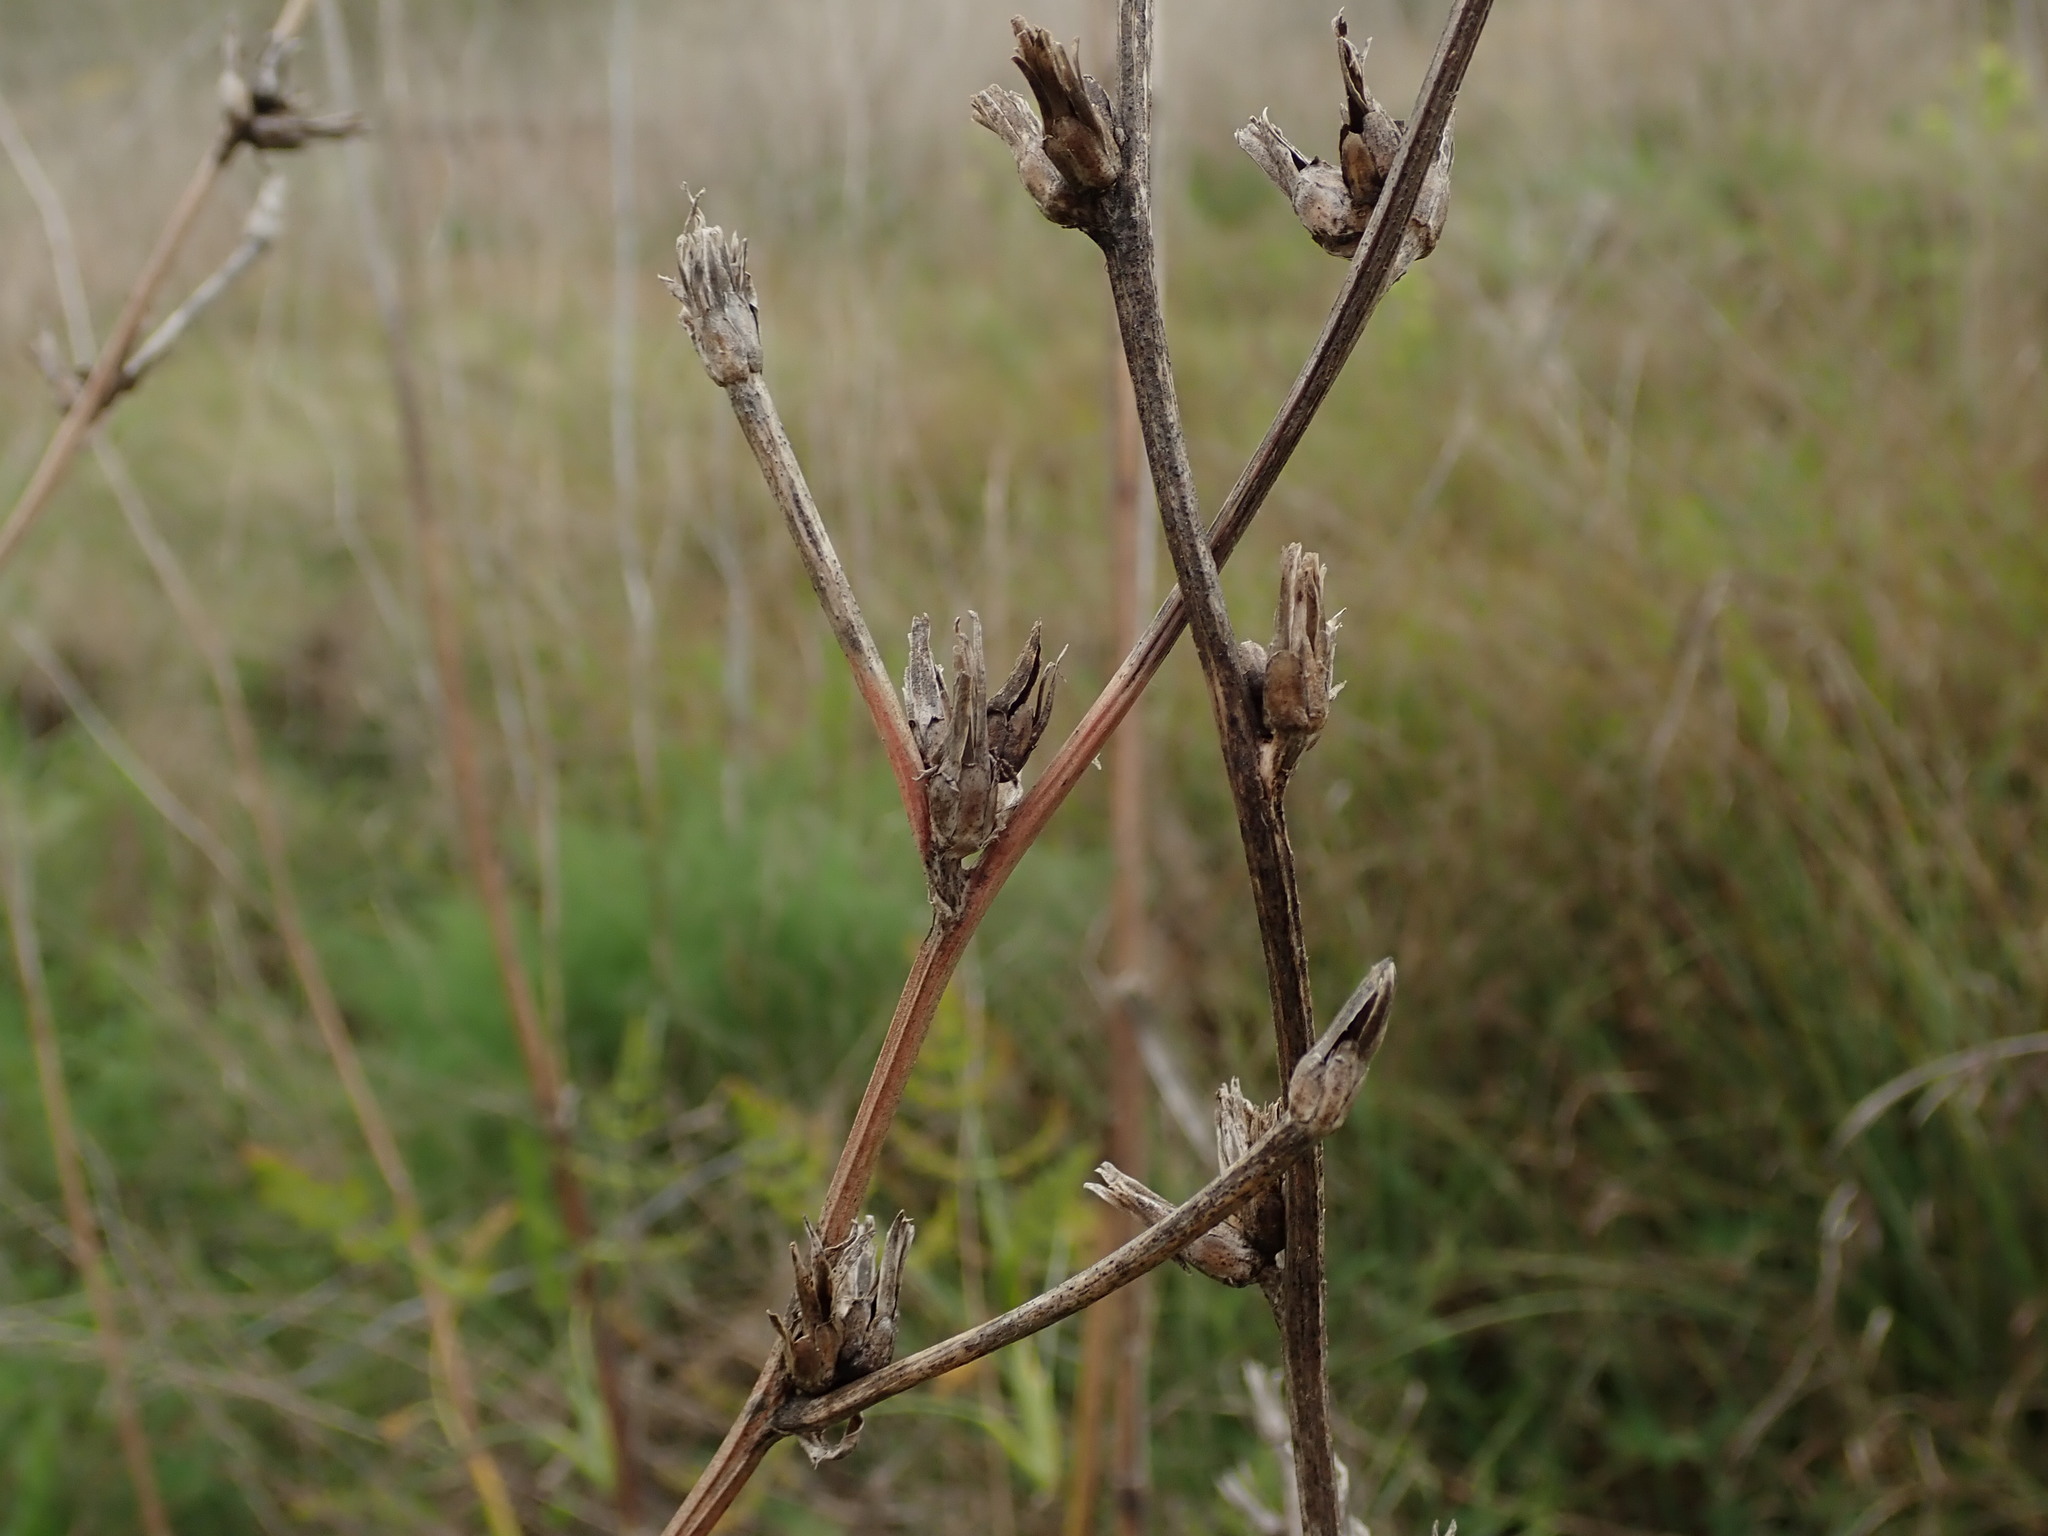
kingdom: Plantae
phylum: Tracheophyta
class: Magnoliopsida
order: Asterales
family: Asteraceae
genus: Cichorium
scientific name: Cichorium intybus
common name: Chicory
